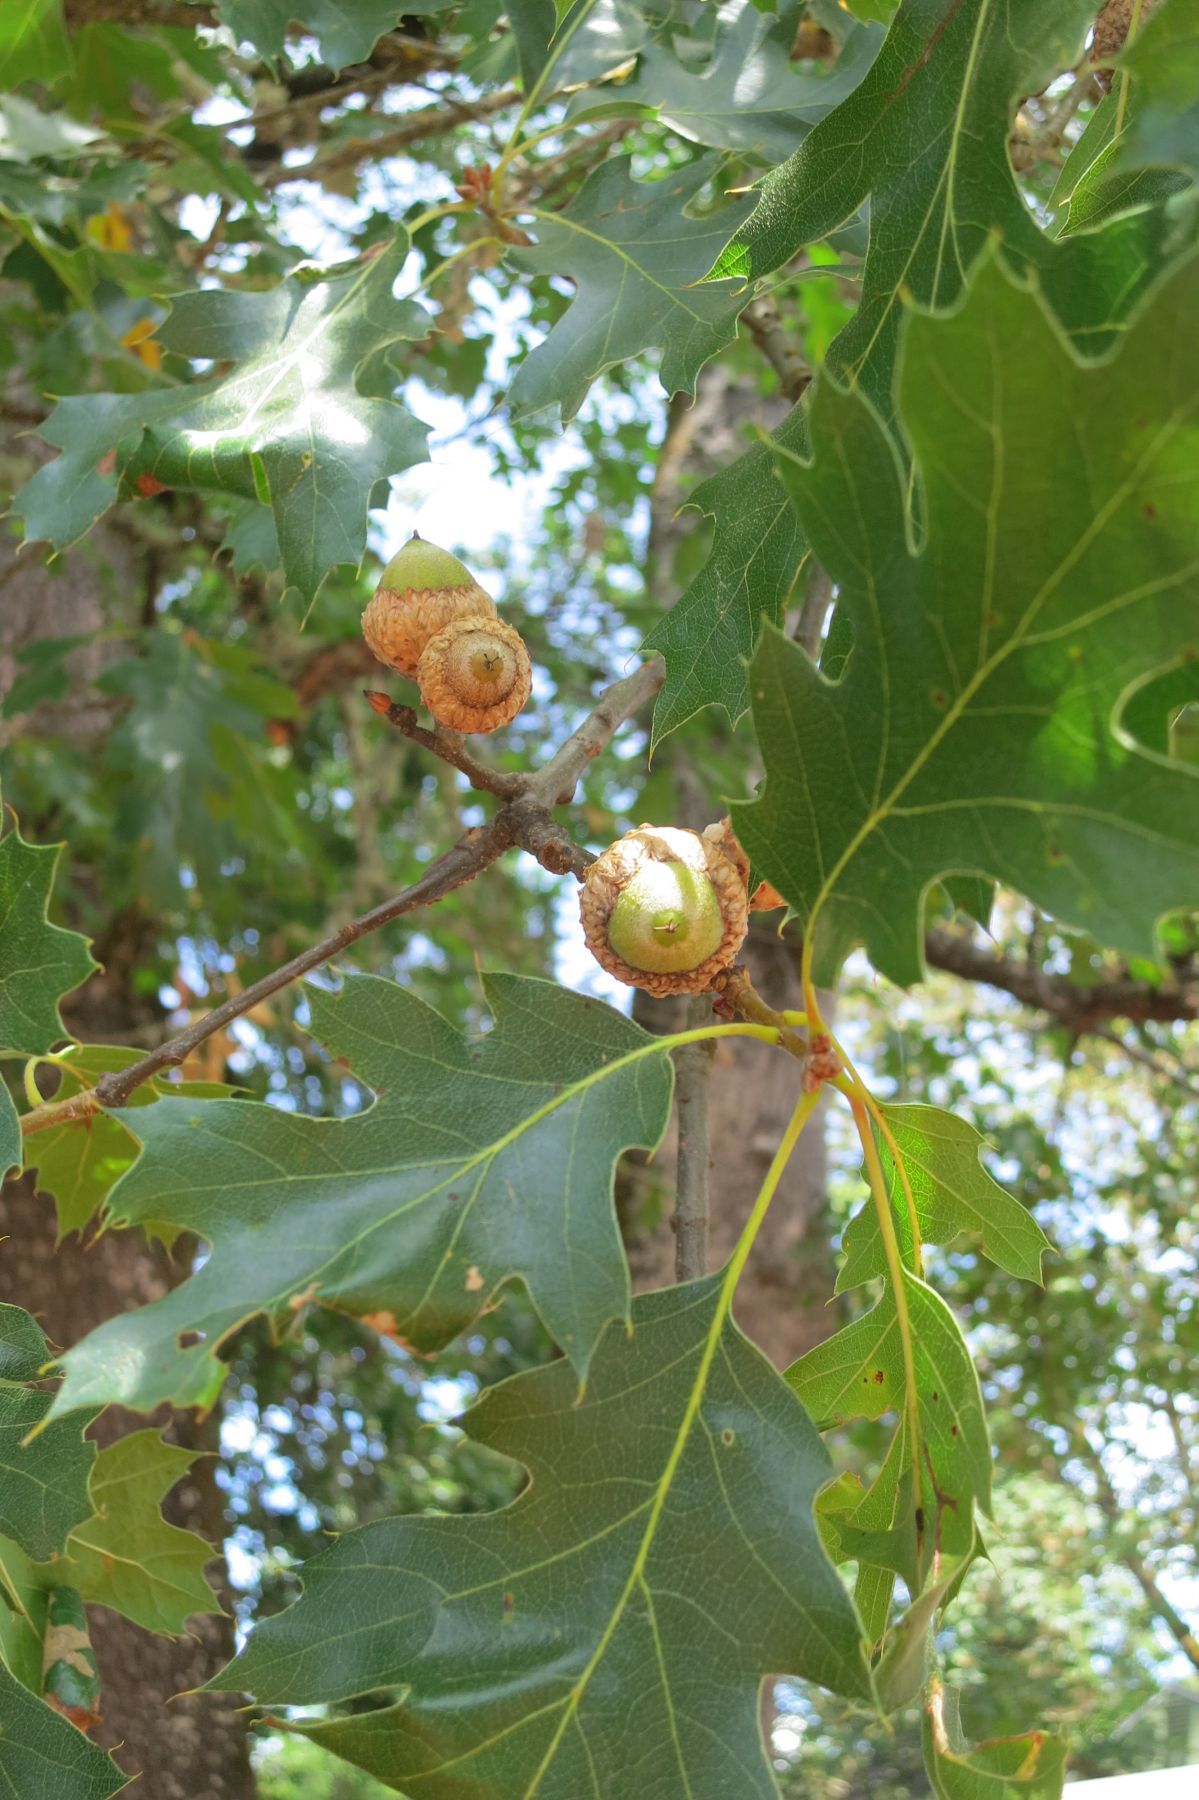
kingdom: Plantae
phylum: Tracheophyta
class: Magnoliopsida
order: Fagales
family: Fagaceae
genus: Quercus
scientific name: Quercus kelloggii
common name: California black oak
